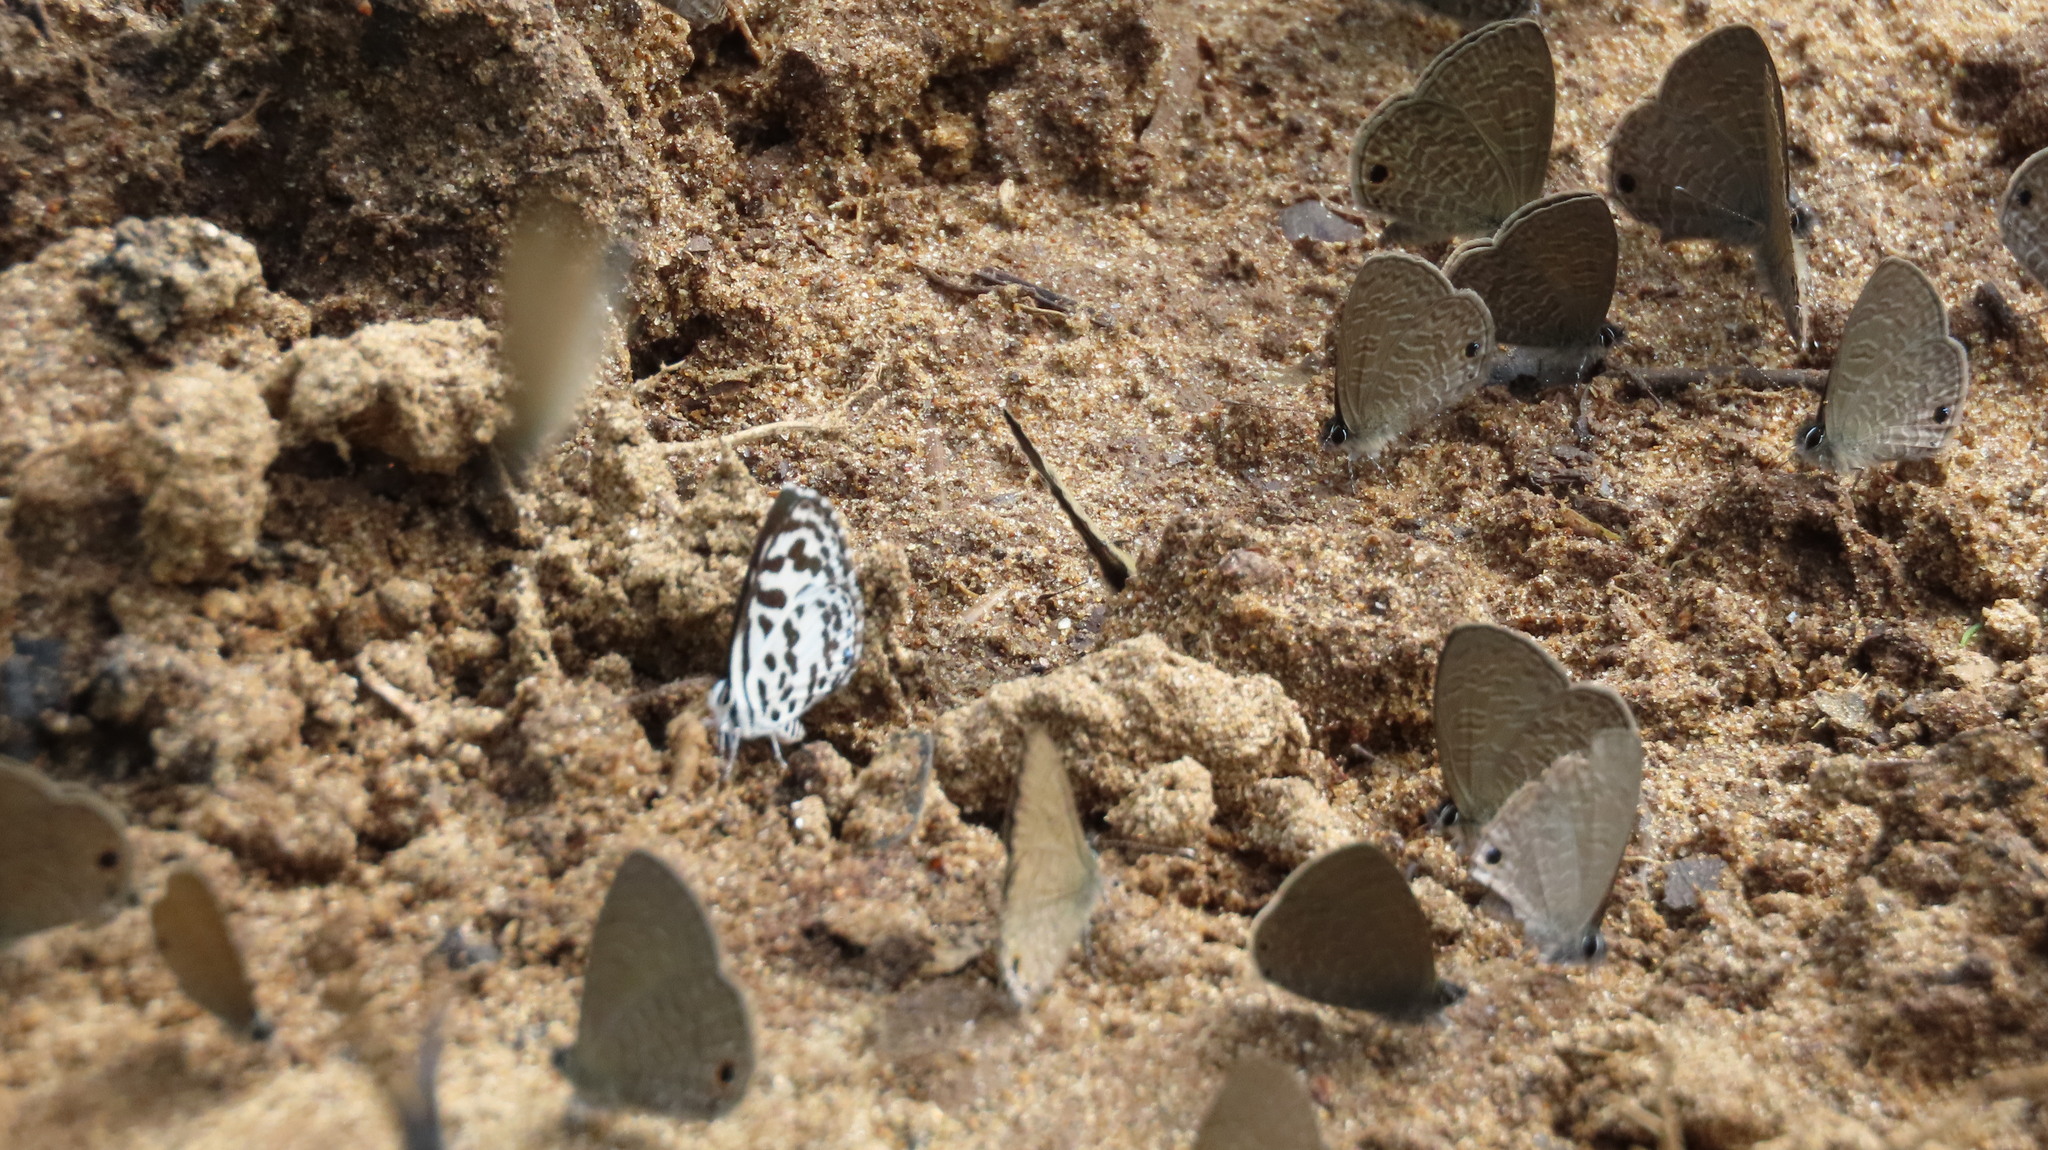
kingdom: Animalia
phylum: Arthropoda
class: Insecta
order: Lepidoptera
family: Lycaenidae
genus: Castalius
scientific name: Castalius rosimon
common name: Common pierrot
